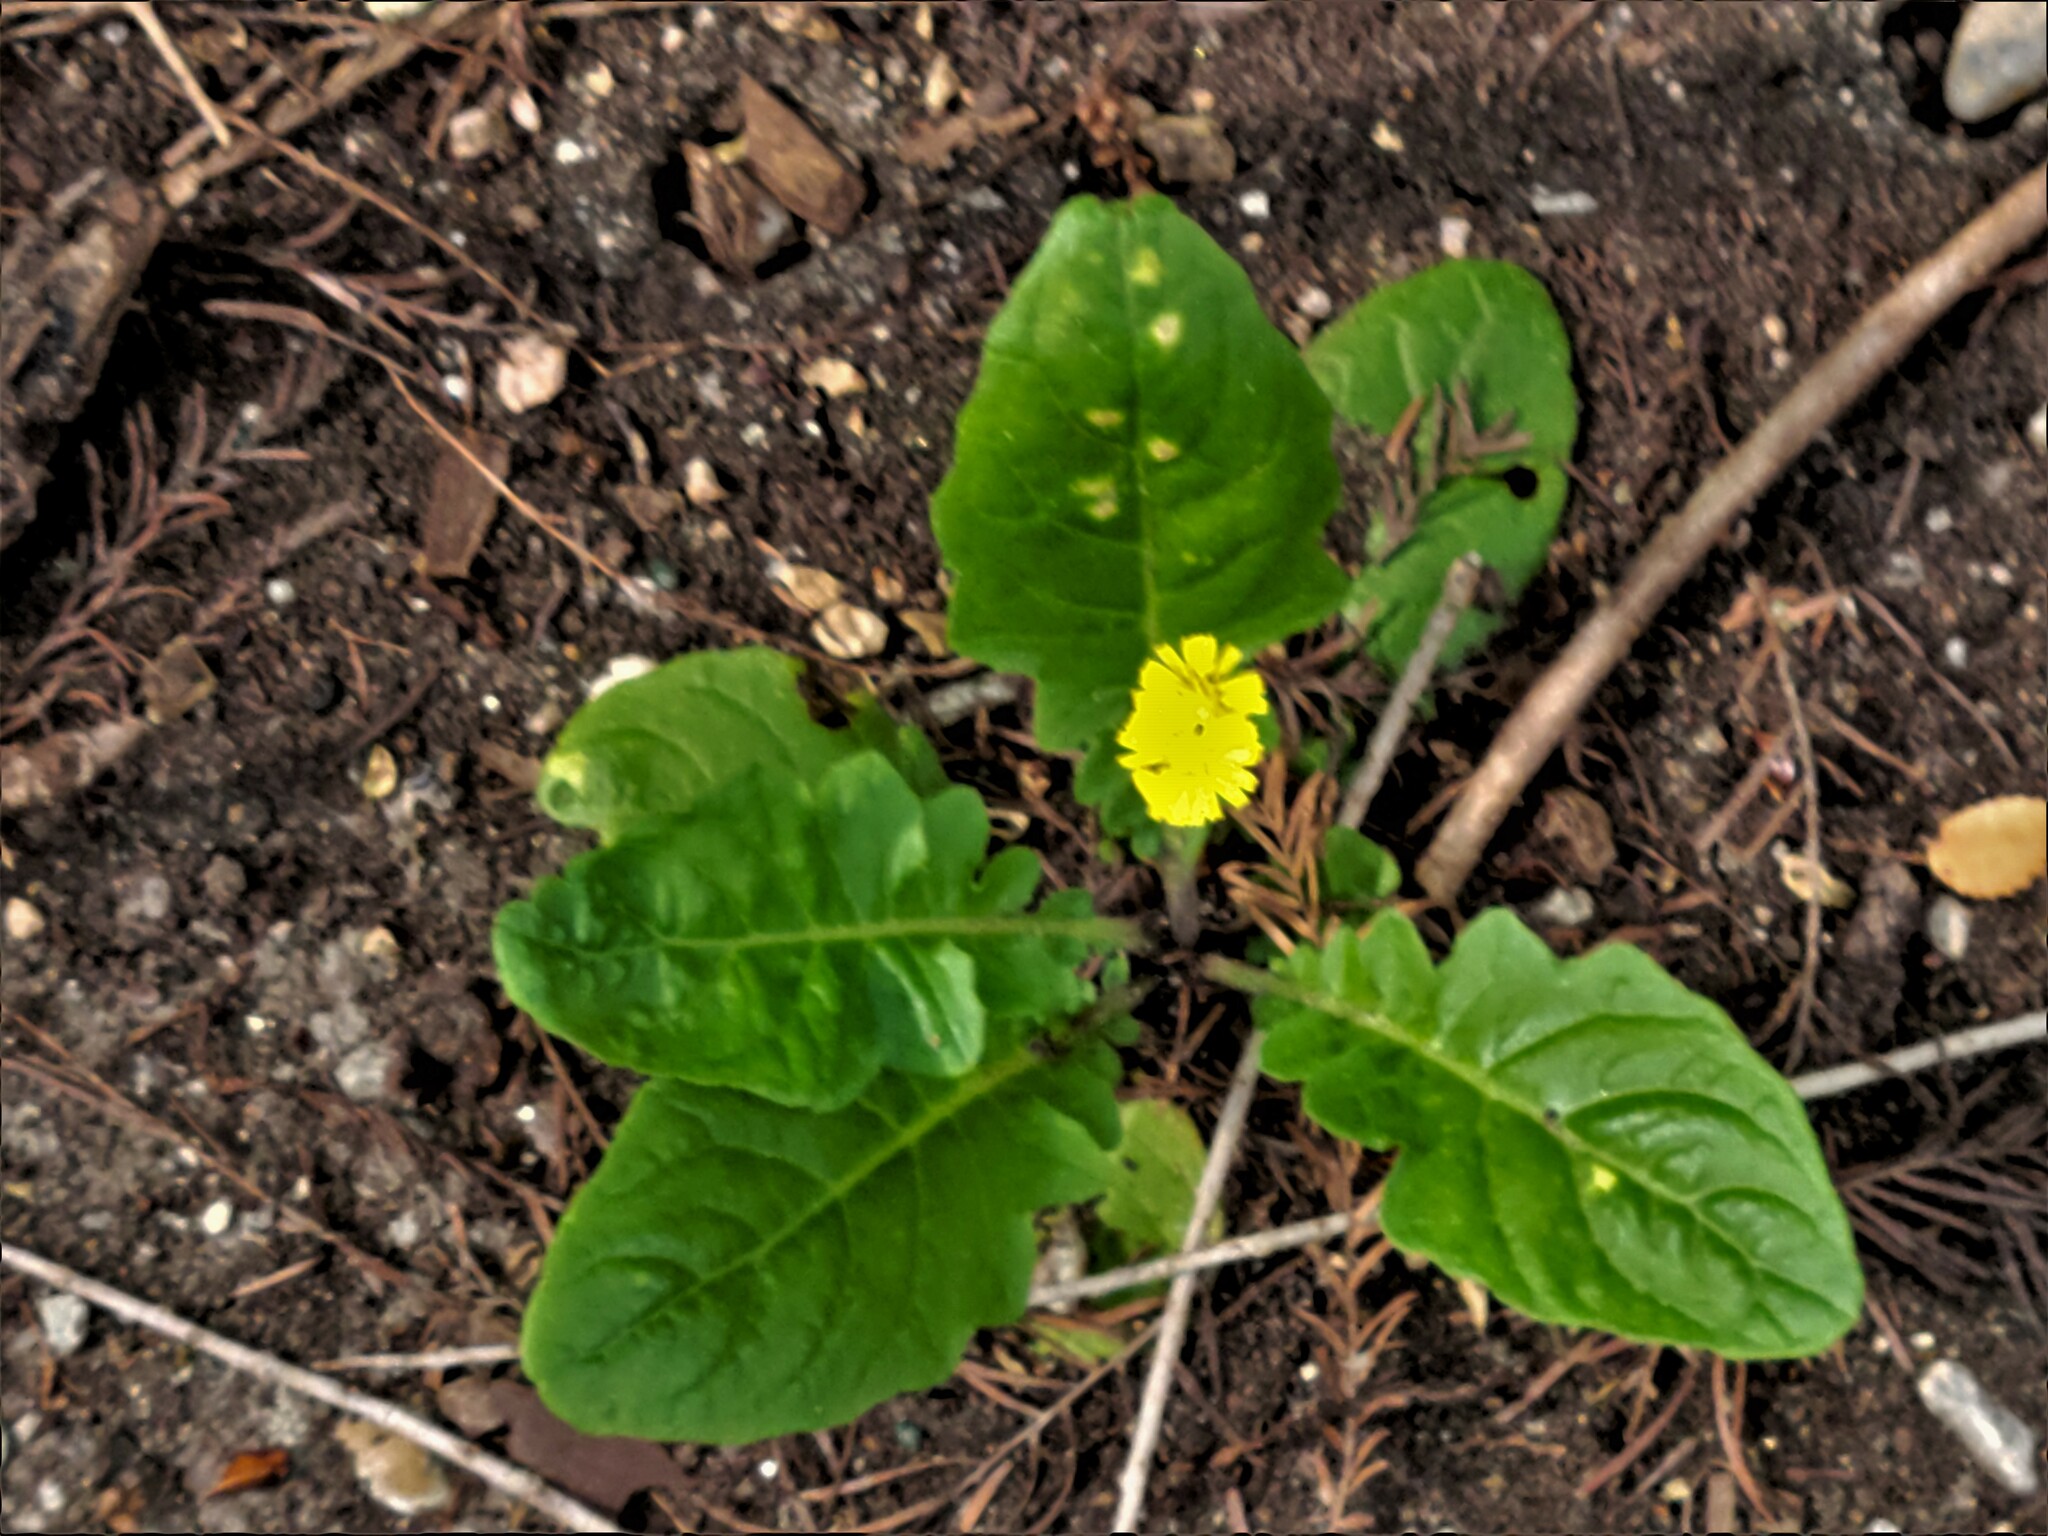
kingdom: Plantae
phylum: Tracheophyta
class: Magnoliopsida
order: Asterales
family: Asteraceae
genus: Youngia
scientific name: Youngia japonica
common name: Oriental false hawksbeard
